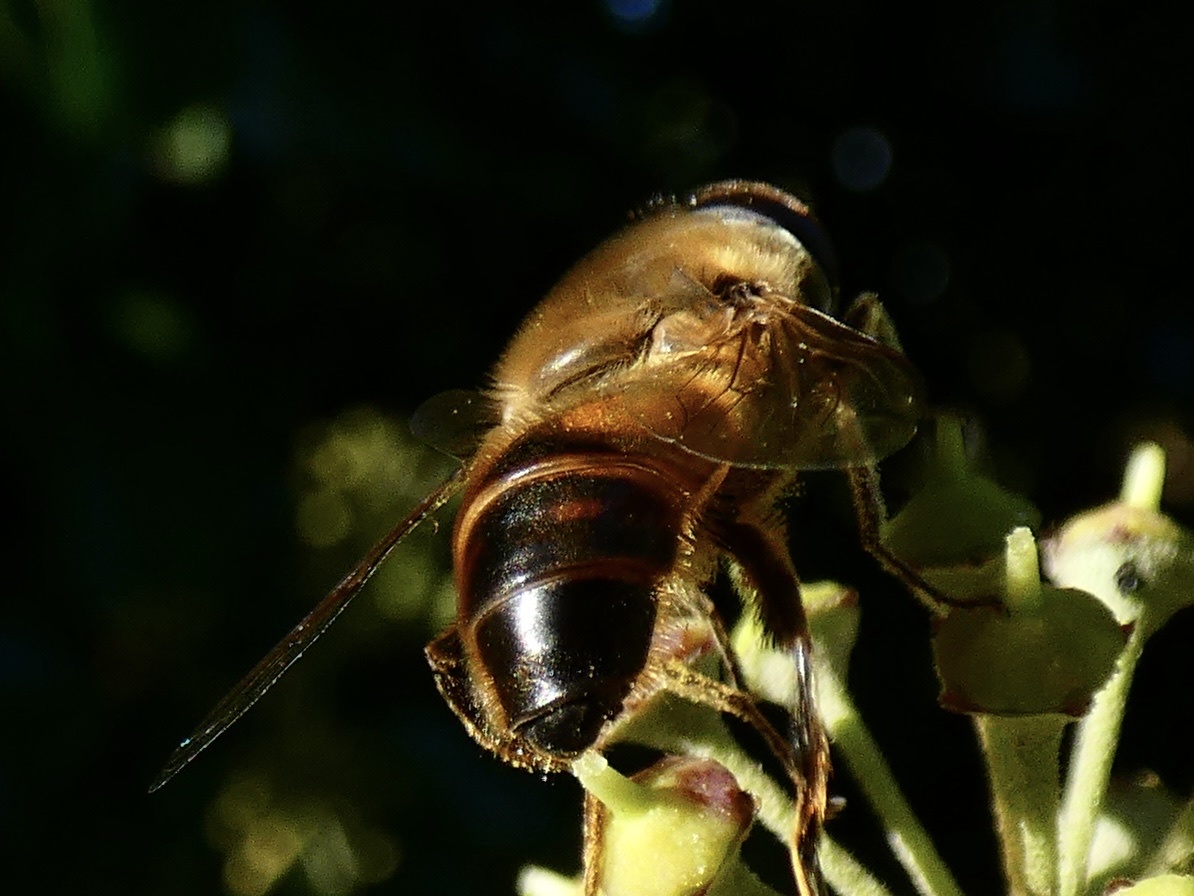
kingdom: Animalia
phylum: Arthropoda
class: Insecta
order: Diptera
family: Syrphidae
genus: Eristalis
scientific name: Eristalis tenax
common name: Drone fly
